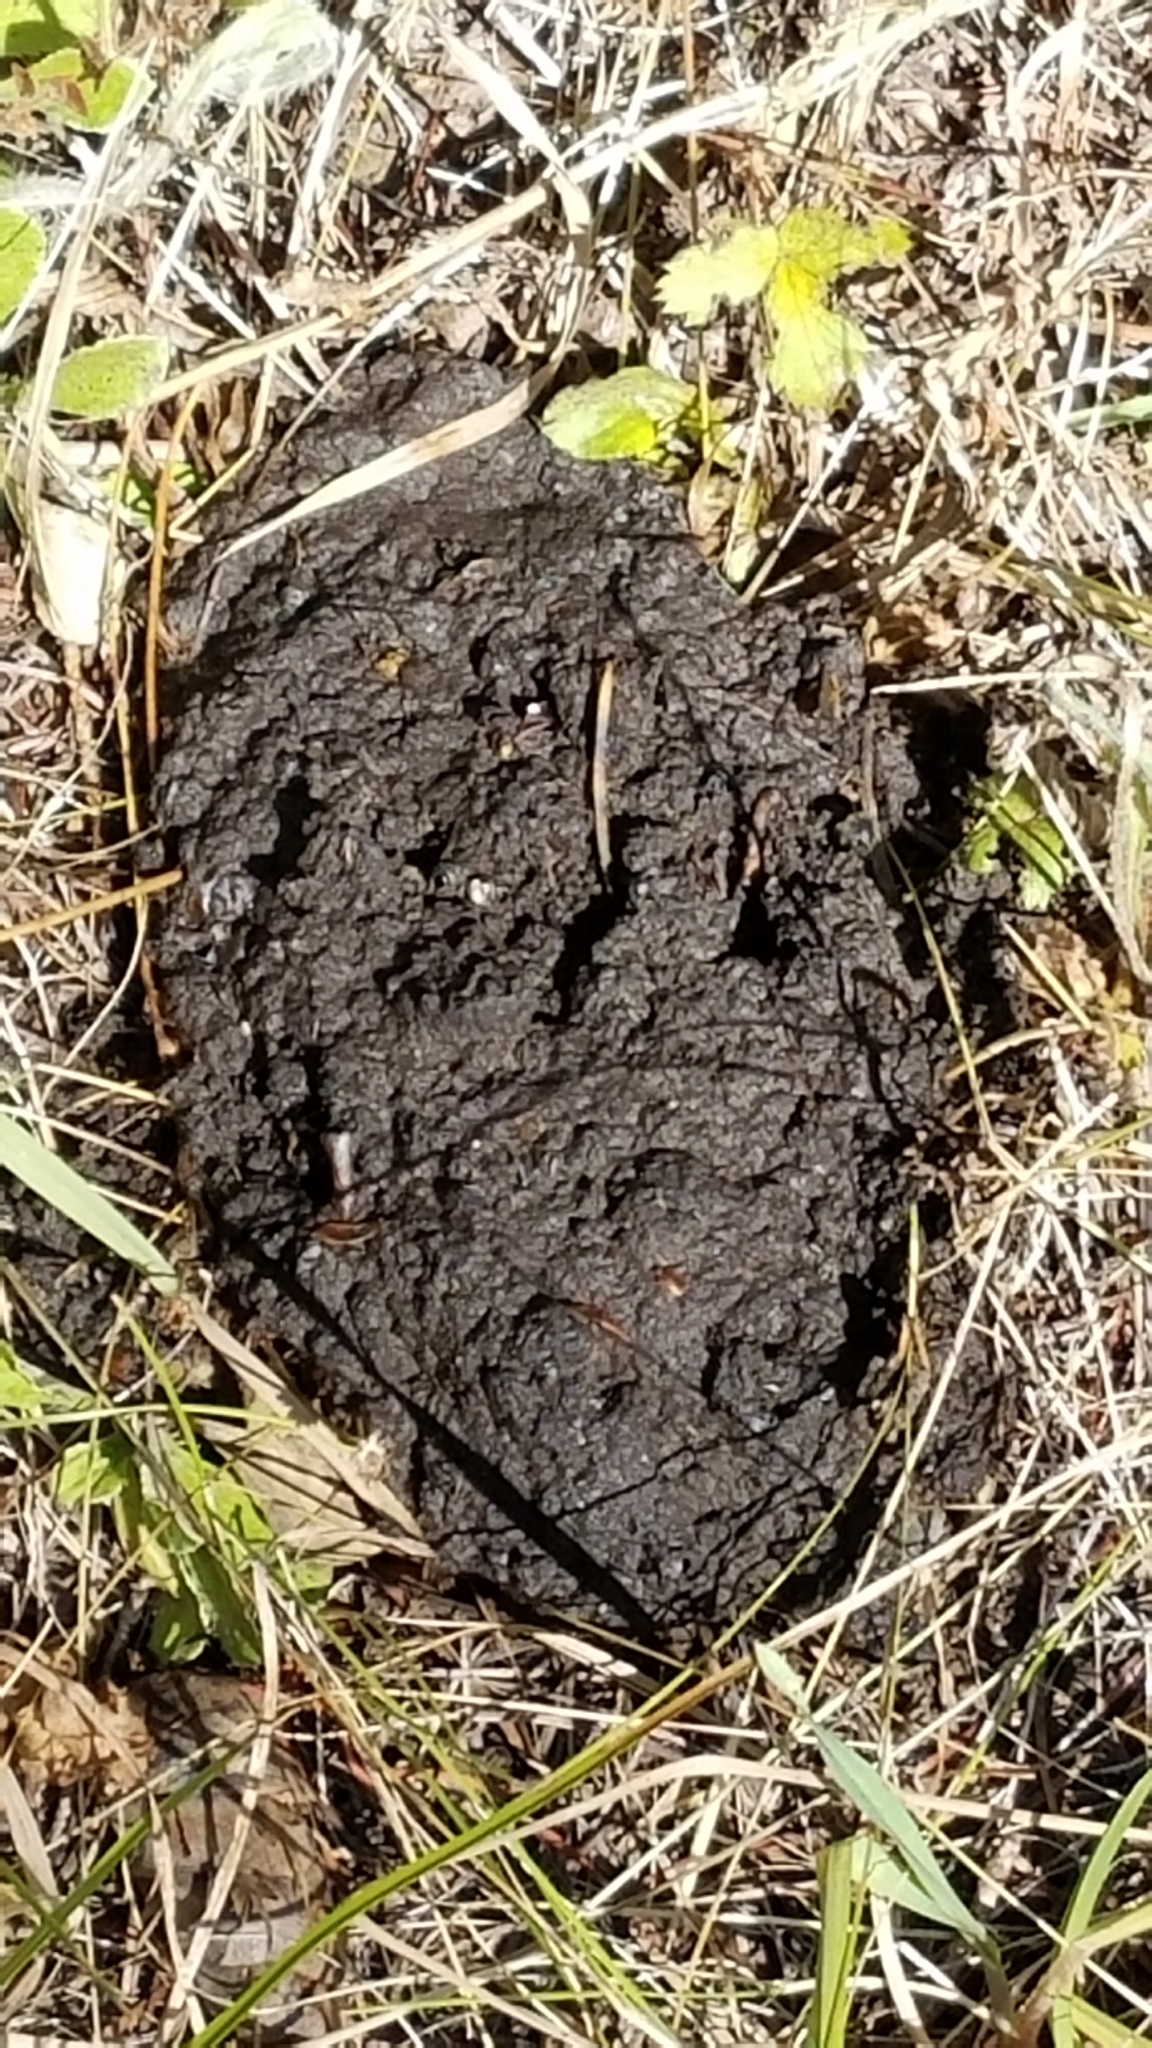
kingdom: Animalia
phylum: Chordata
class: Mammalia
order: Carnivora
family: Ursidae
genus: Ursus
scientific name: Ursus americanus
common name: American black bear
